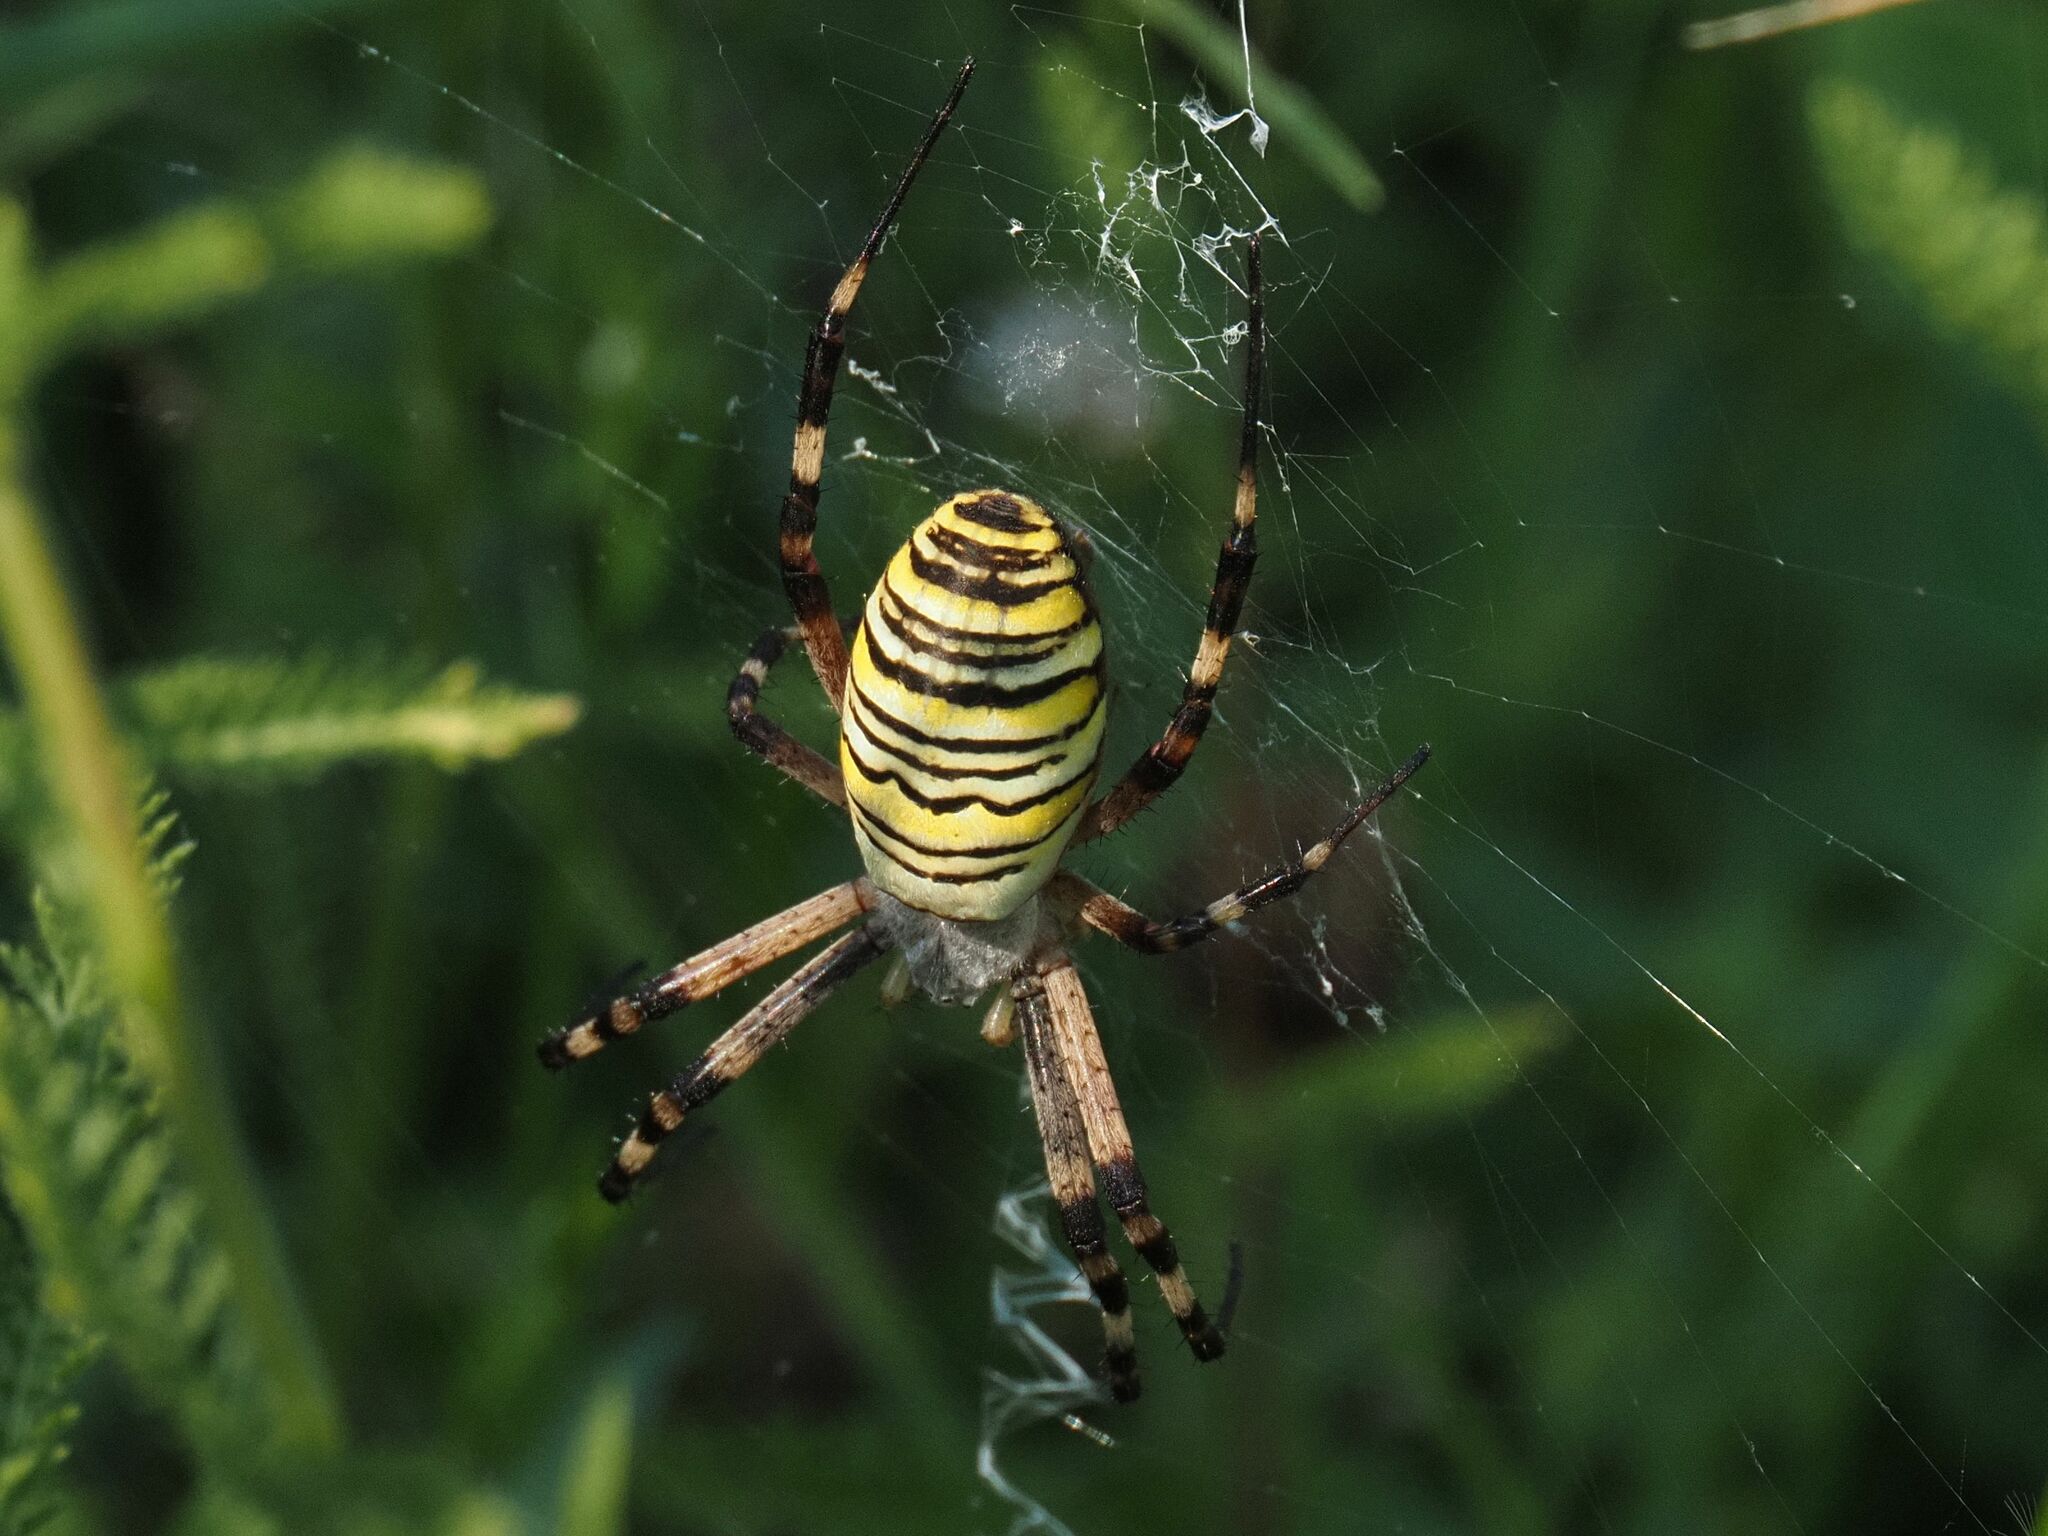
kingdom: Animalia
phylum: Arthropoda
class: Arachnida
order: Araneae
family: Araneidae
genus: Argiope
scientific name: Argiope bruennichi
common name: Wasp spider
